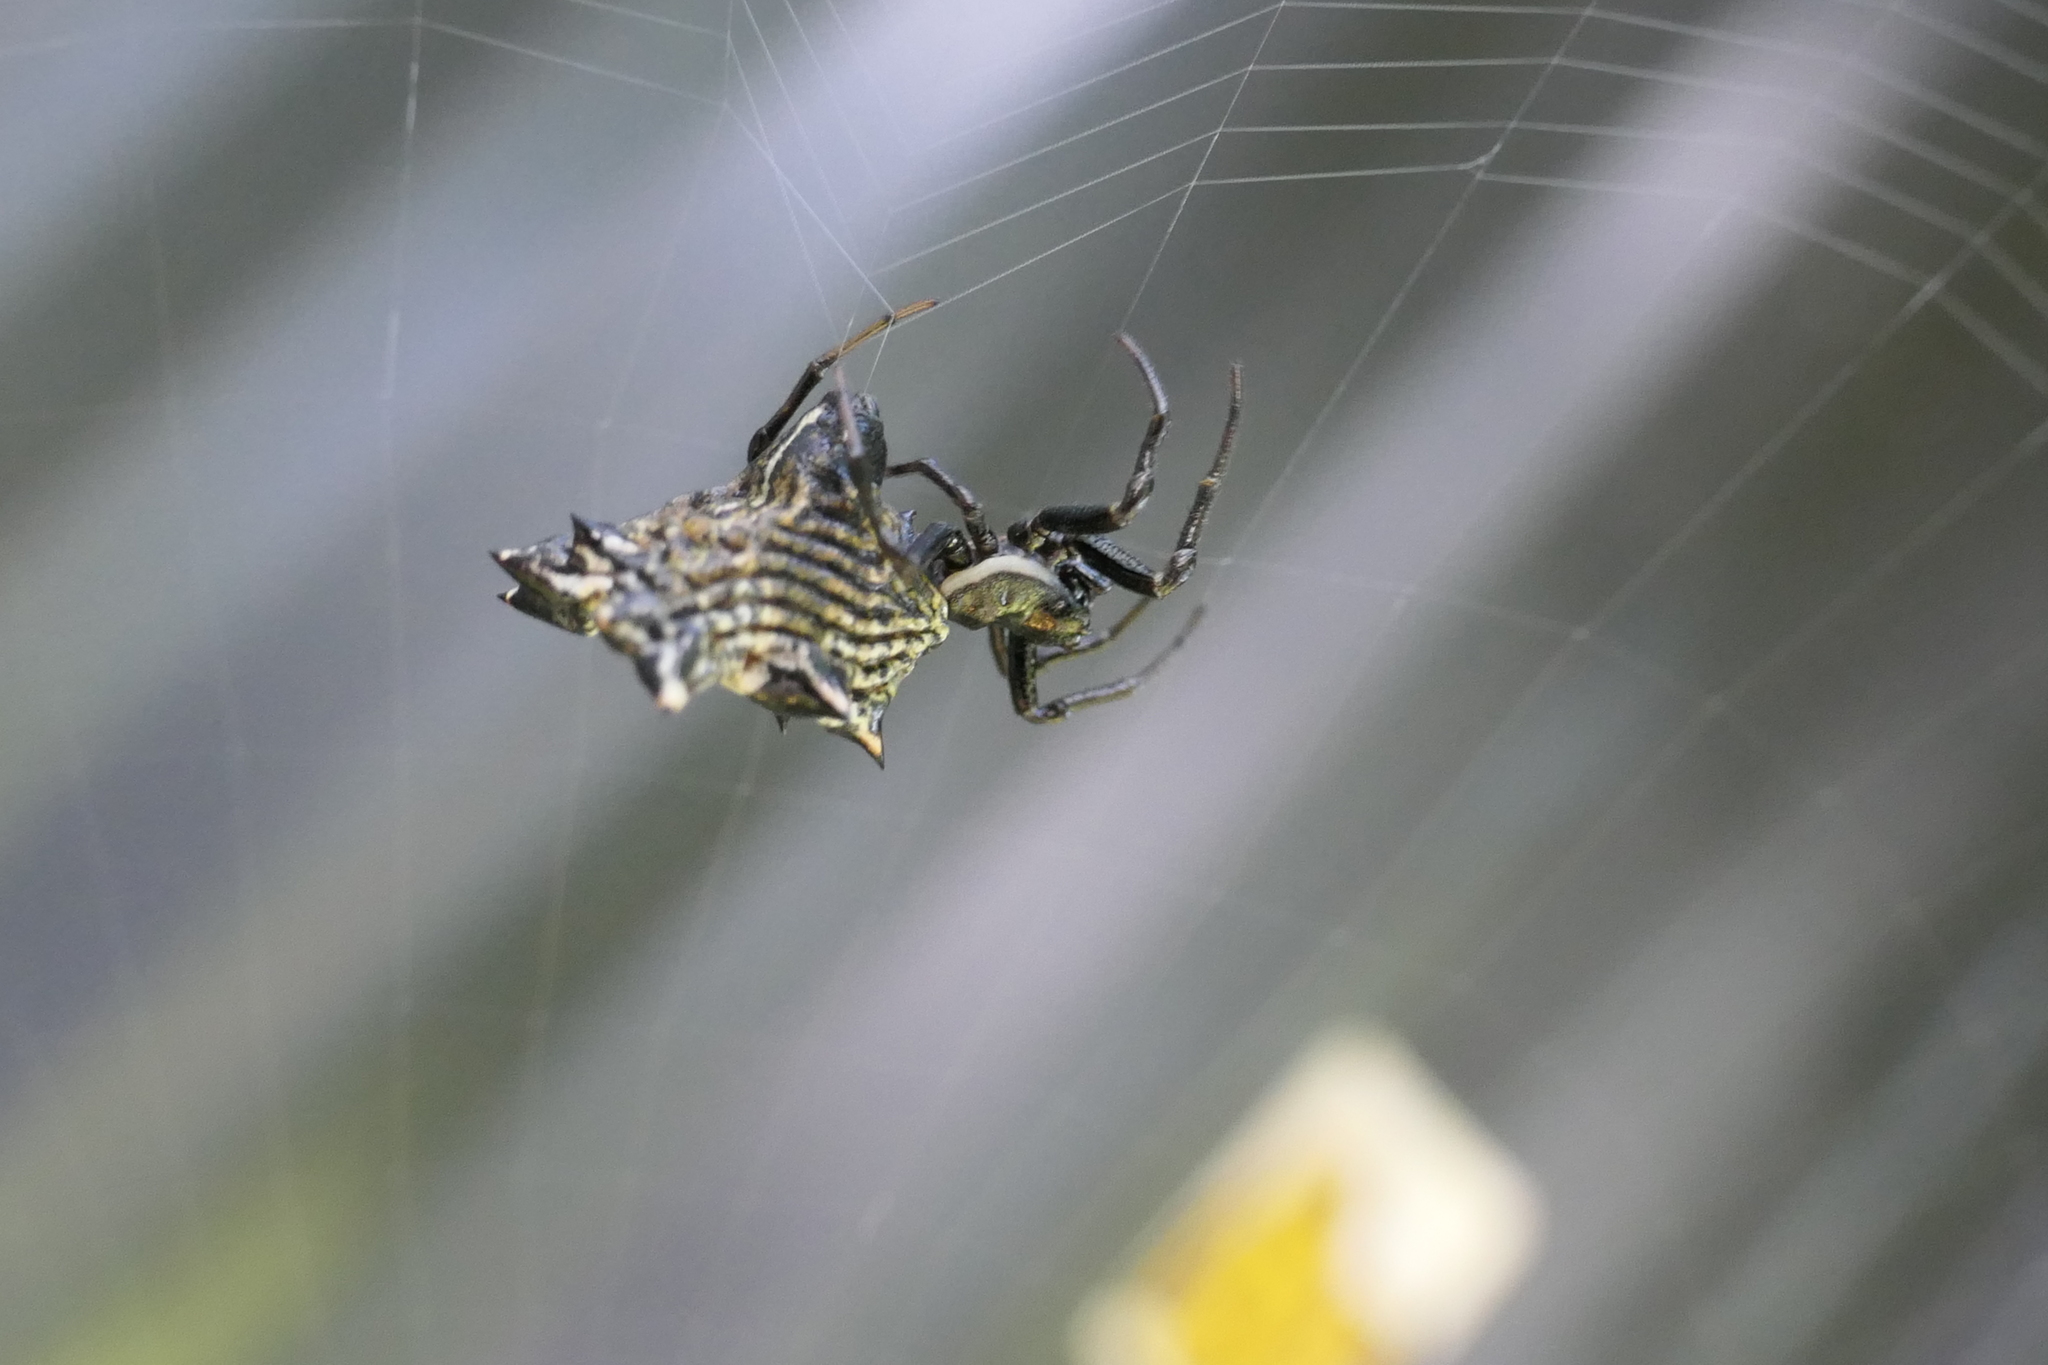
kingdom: Animalia
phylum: Arthropoda
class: Arachnida
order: Araneae
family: Araneidae
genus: Micrathena
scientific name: Micrathena gracilis
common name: Orb weavers
